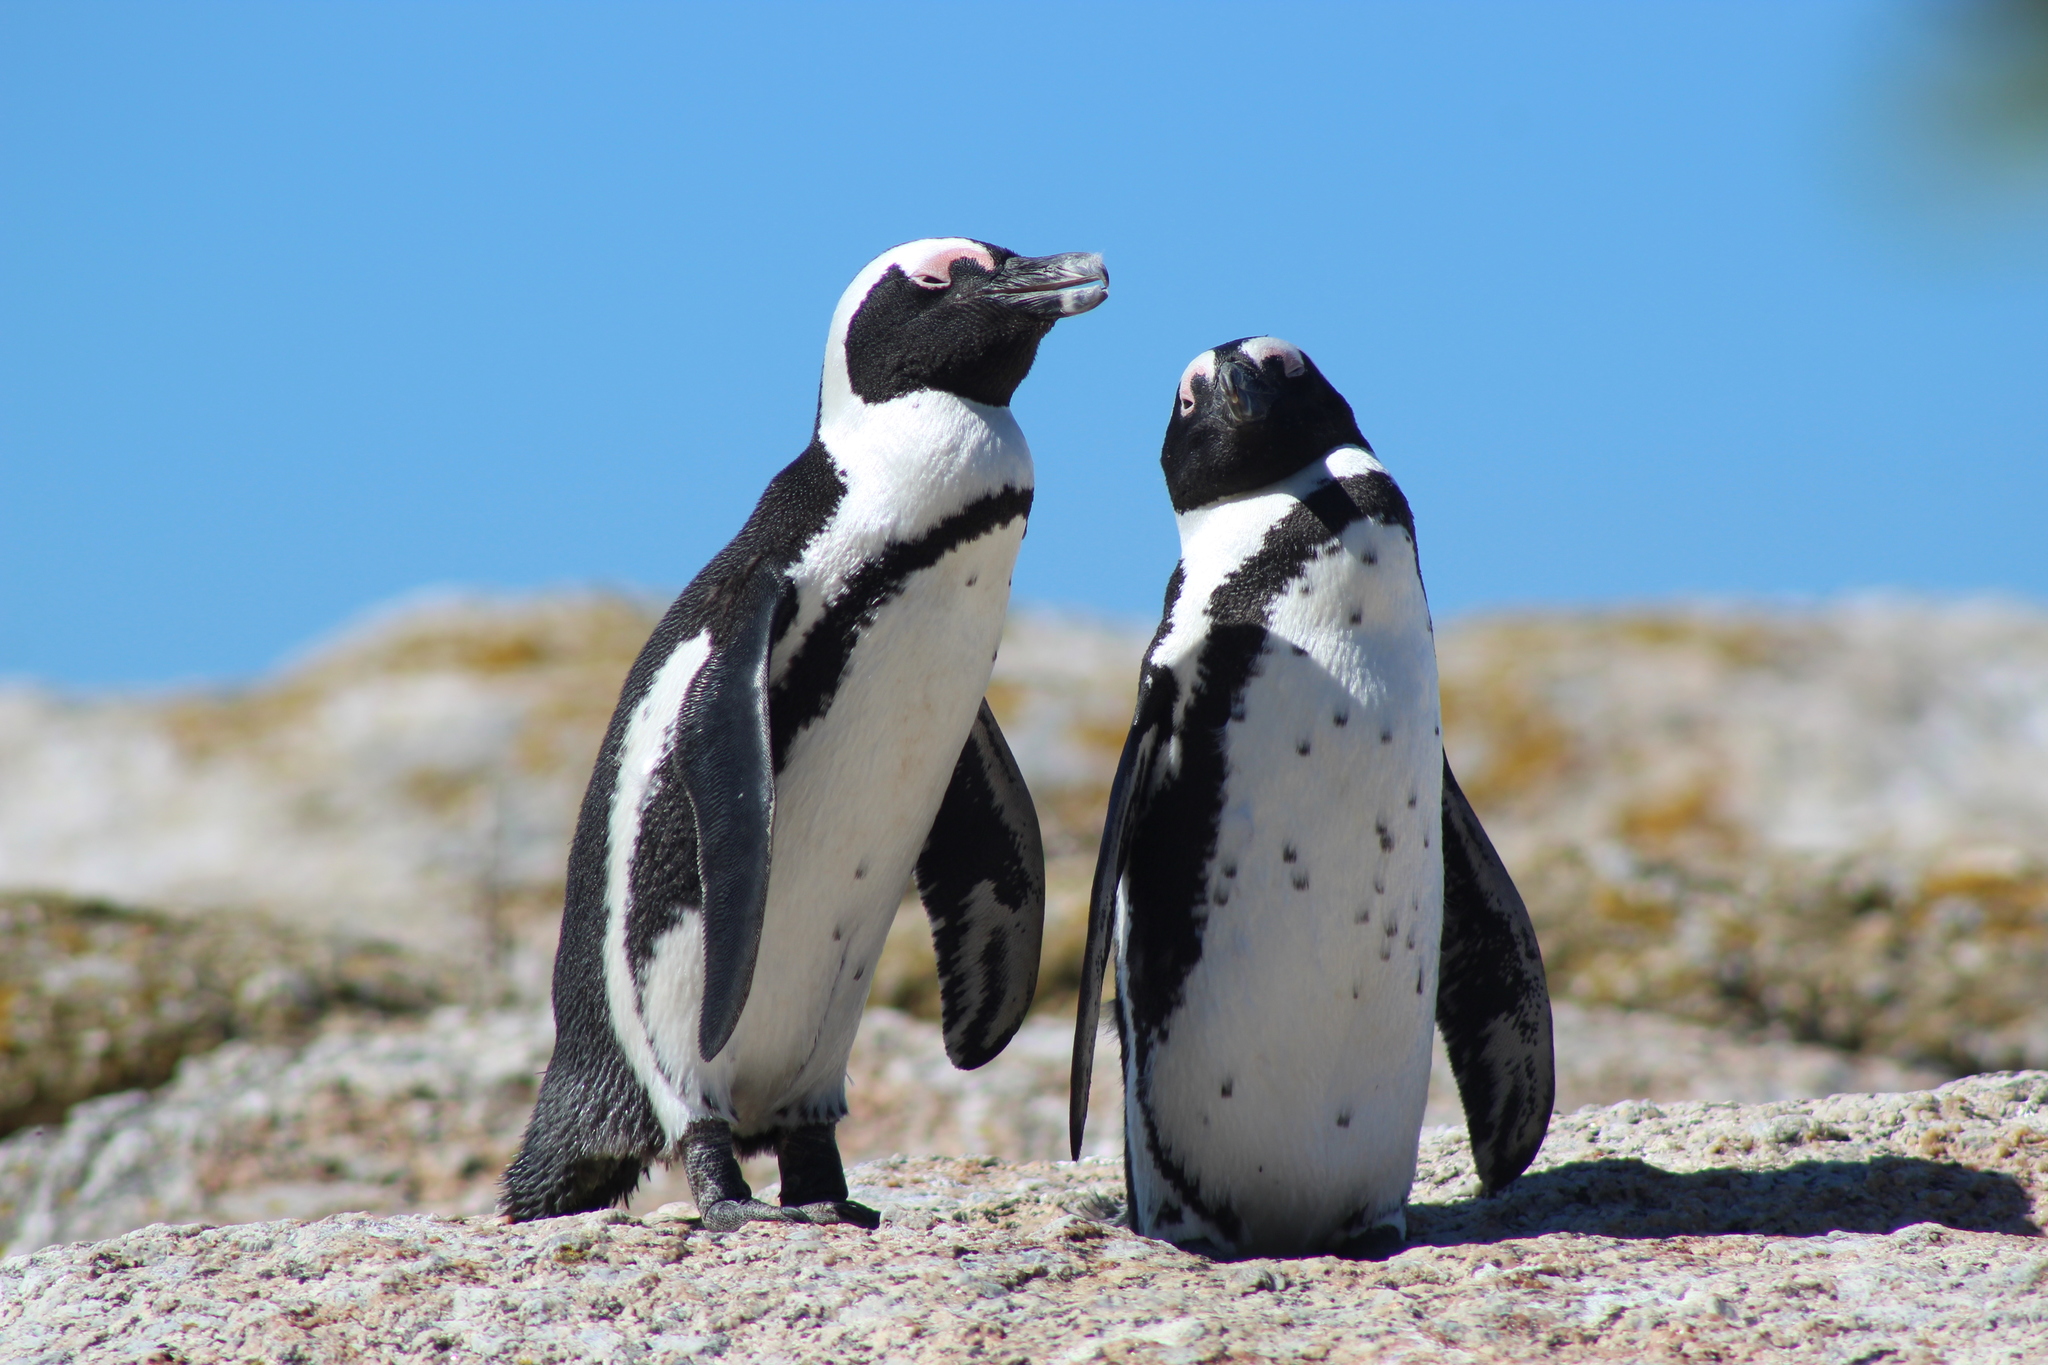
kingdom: Animalia
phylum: Chordata
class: Aves
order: Sphenisciformes
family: Spheniscidae
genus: Spheniscus
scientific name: Spheniscus demersus
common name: African penguin
